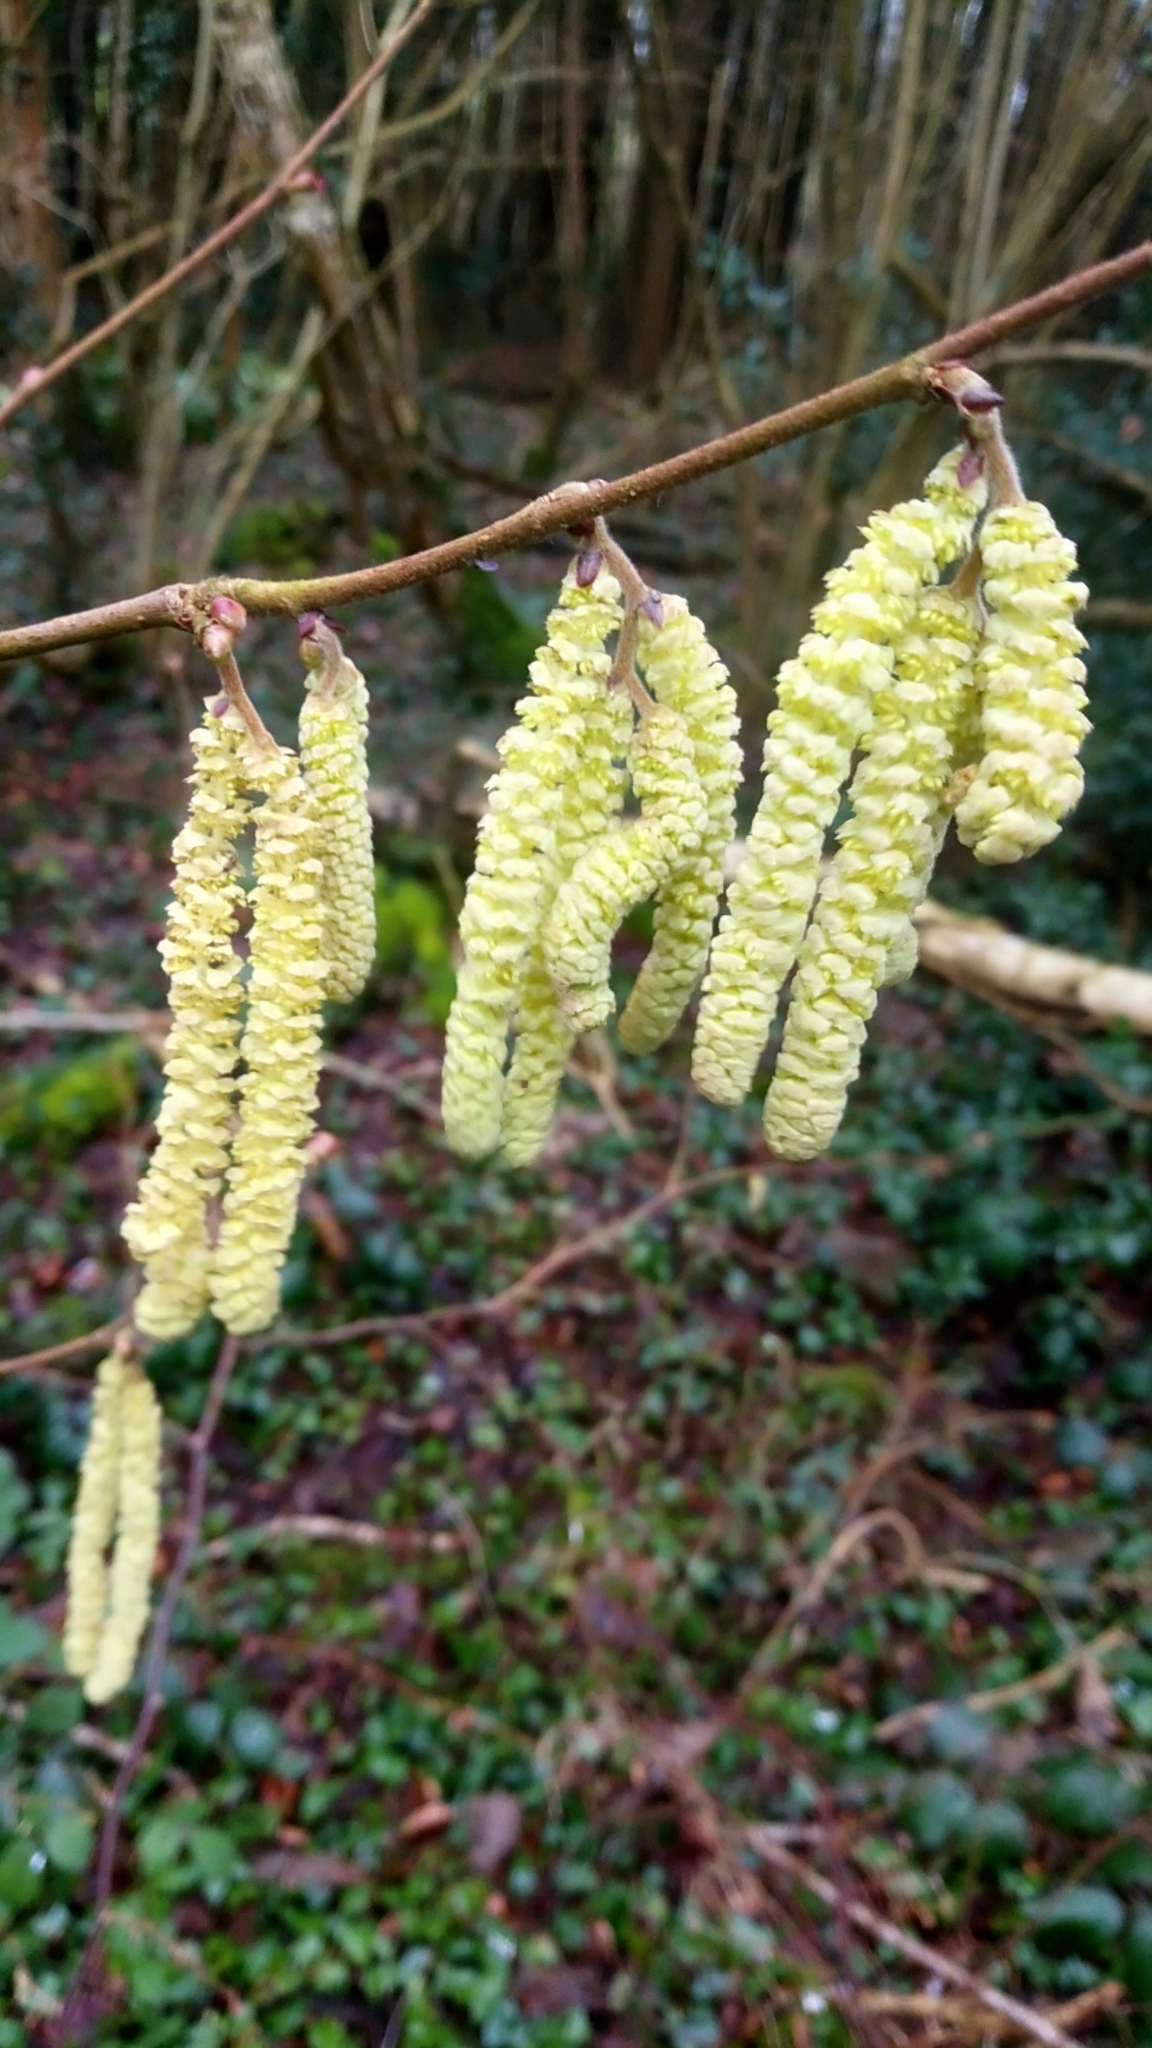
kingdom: Plantae
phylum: Tracheophyta
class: Magnoliopsida
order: Fagales
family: Betulaceae
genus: Corylus
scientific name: Corylus avellana
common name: European hazel
